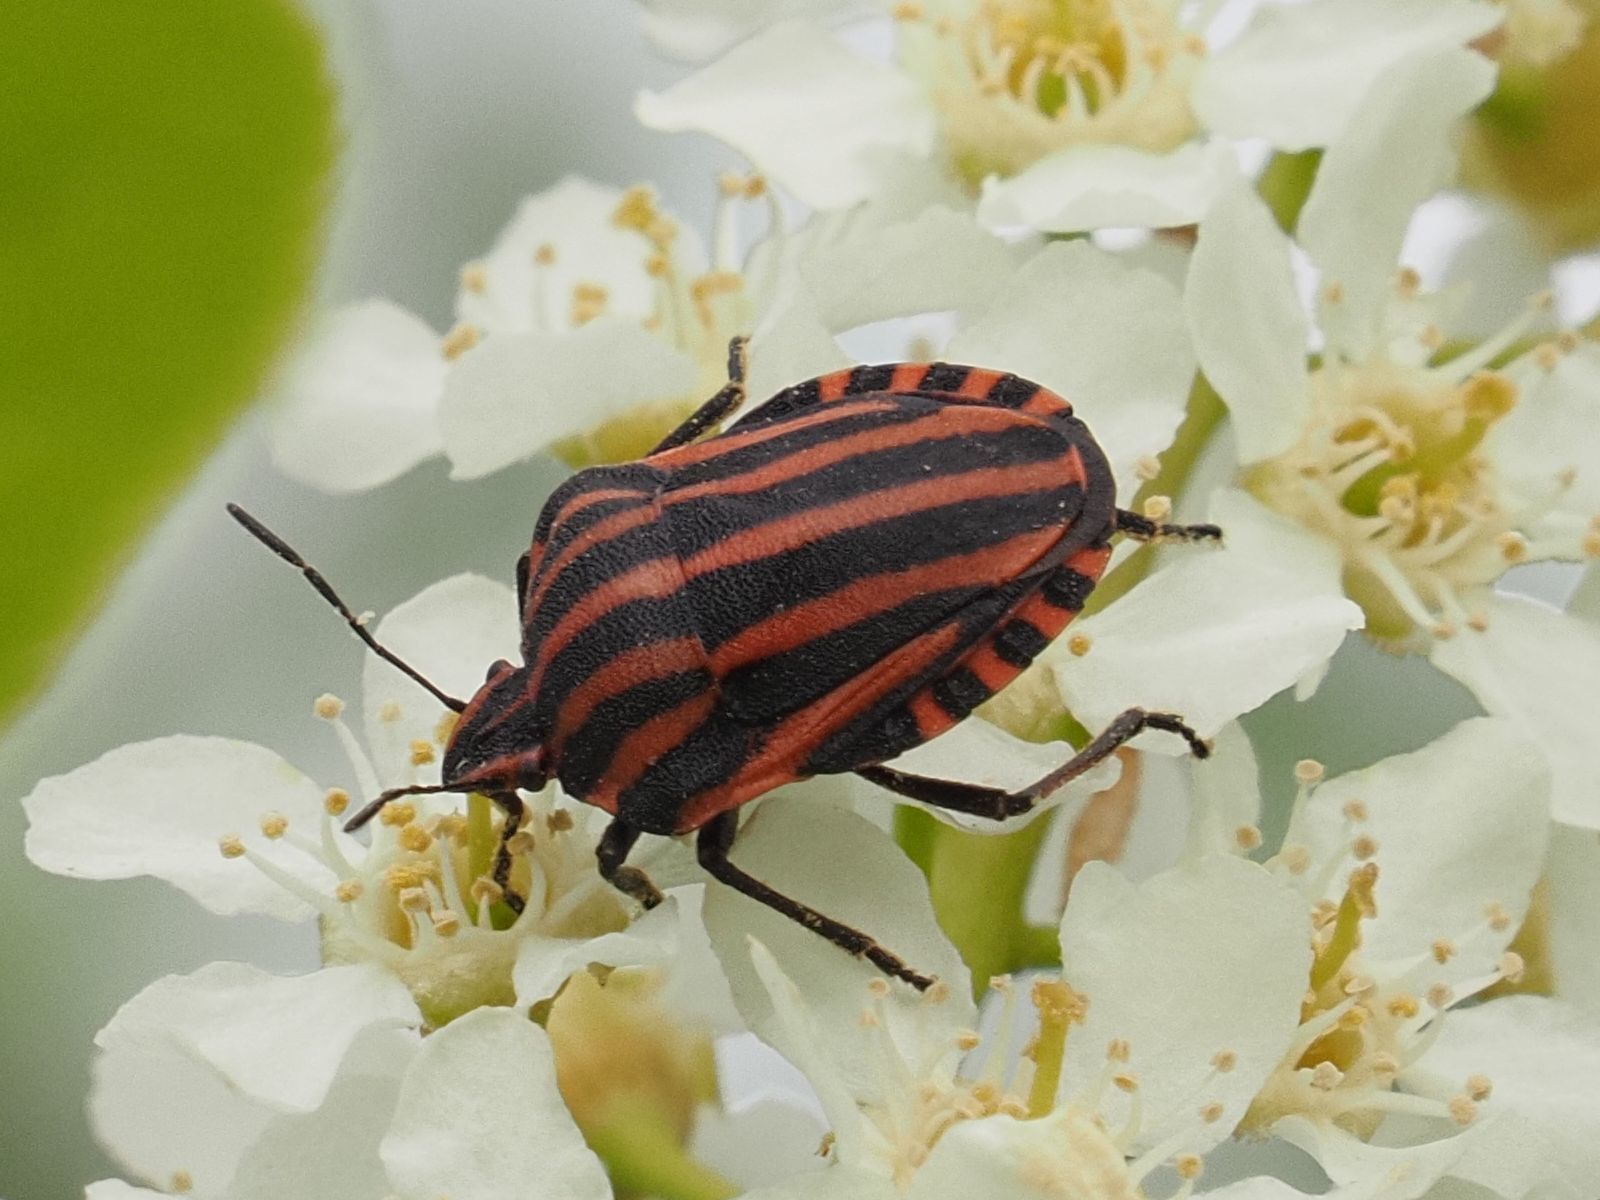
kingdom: Animalia
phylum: Arthropoda
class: Insecta
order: Hemiptera
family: Pentatomidae
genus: Graphosoma
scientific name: Graphosoma italicum
